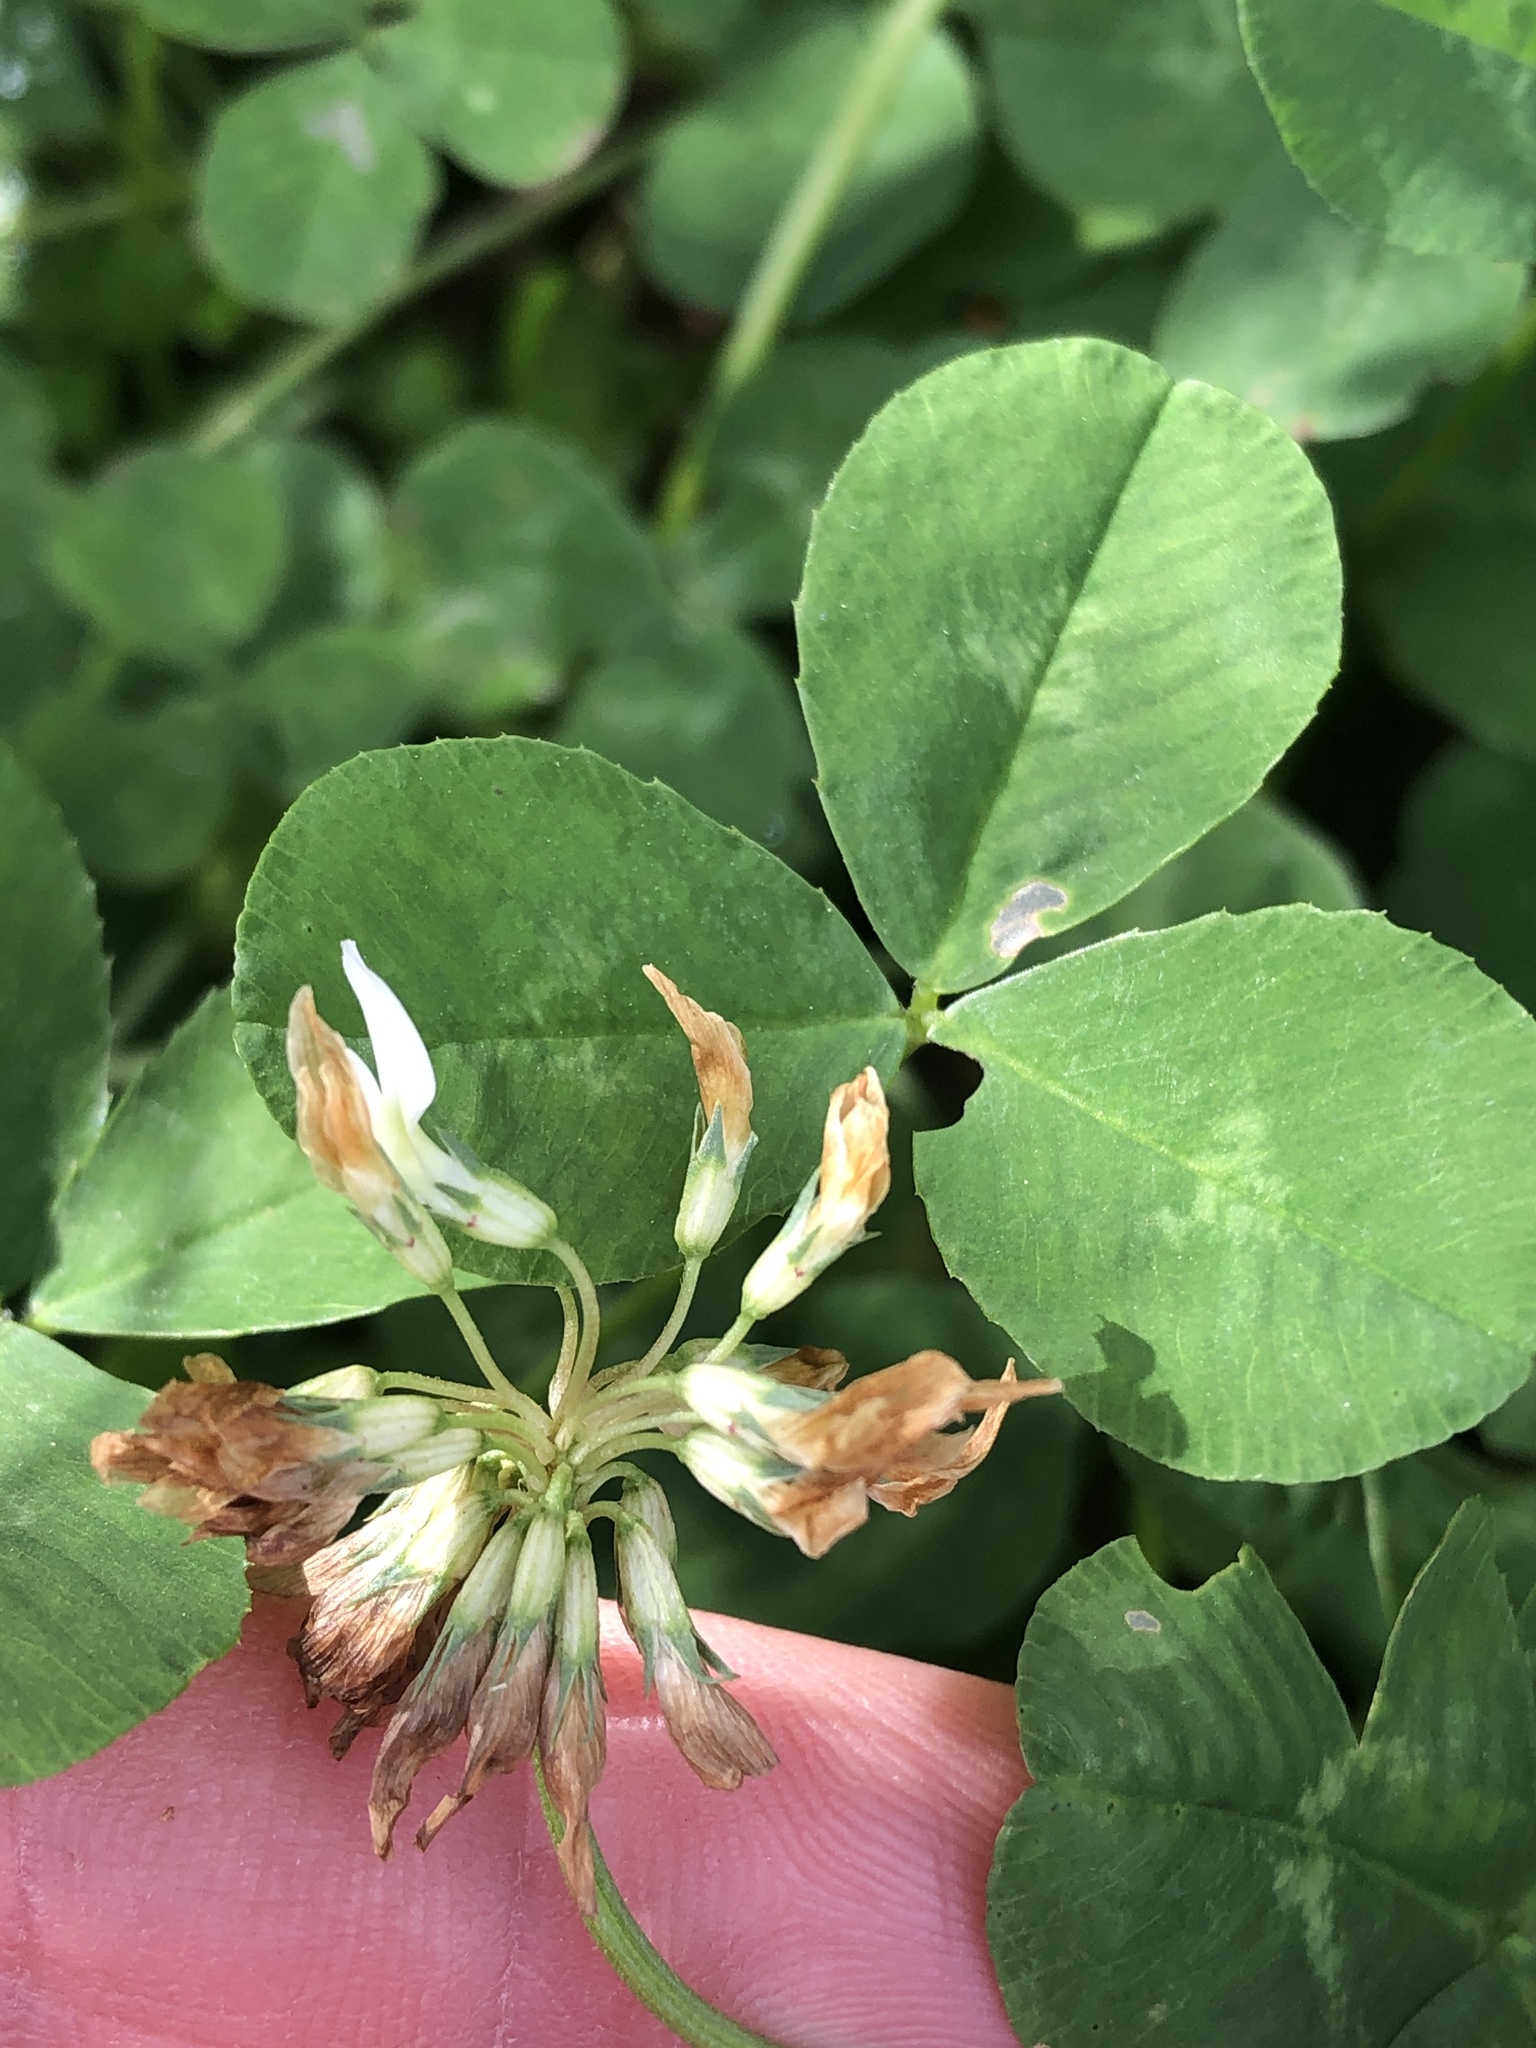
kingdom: Plantae
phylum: Tracheophyta
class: Magnoliopsida
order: Fabales
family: Fabaceae
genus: Trifolium
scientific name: Trifolium repens
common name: White clover
